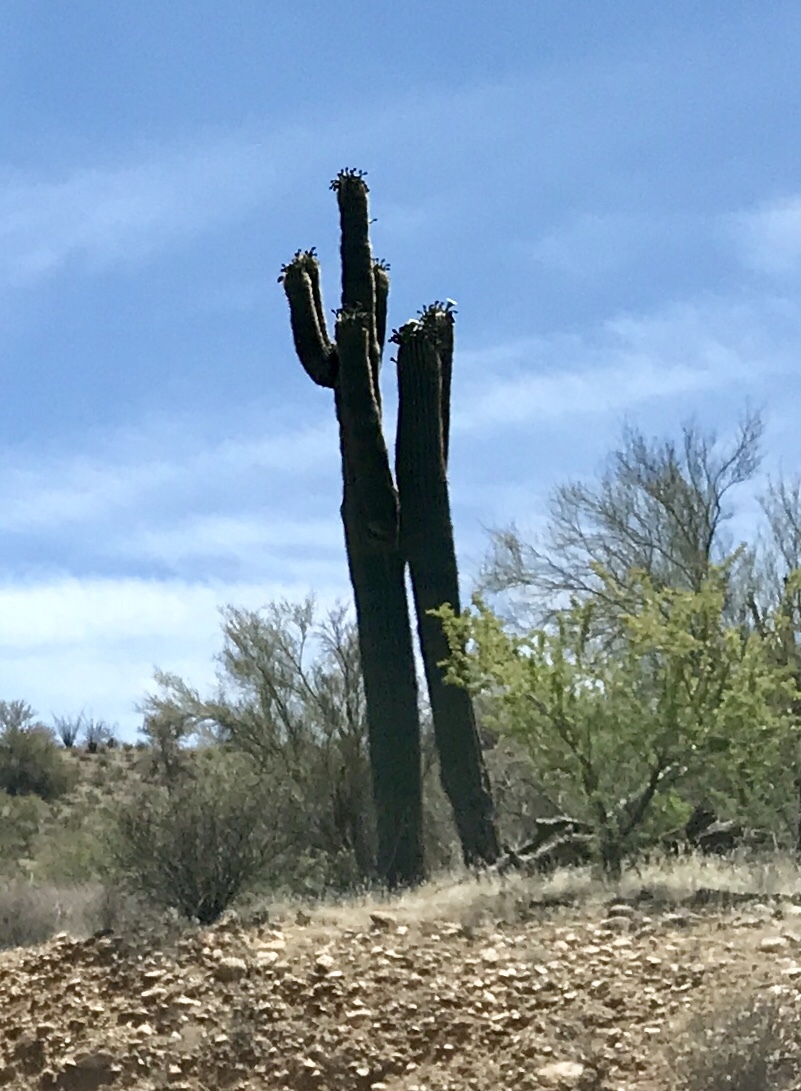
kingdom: Plantae
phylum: Tracheophyta
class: Magnoliopsida
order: Caryophyllales
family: Cactaceae
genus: Carnegiea
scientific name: Carnegiea gigantea
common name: Saguaro
